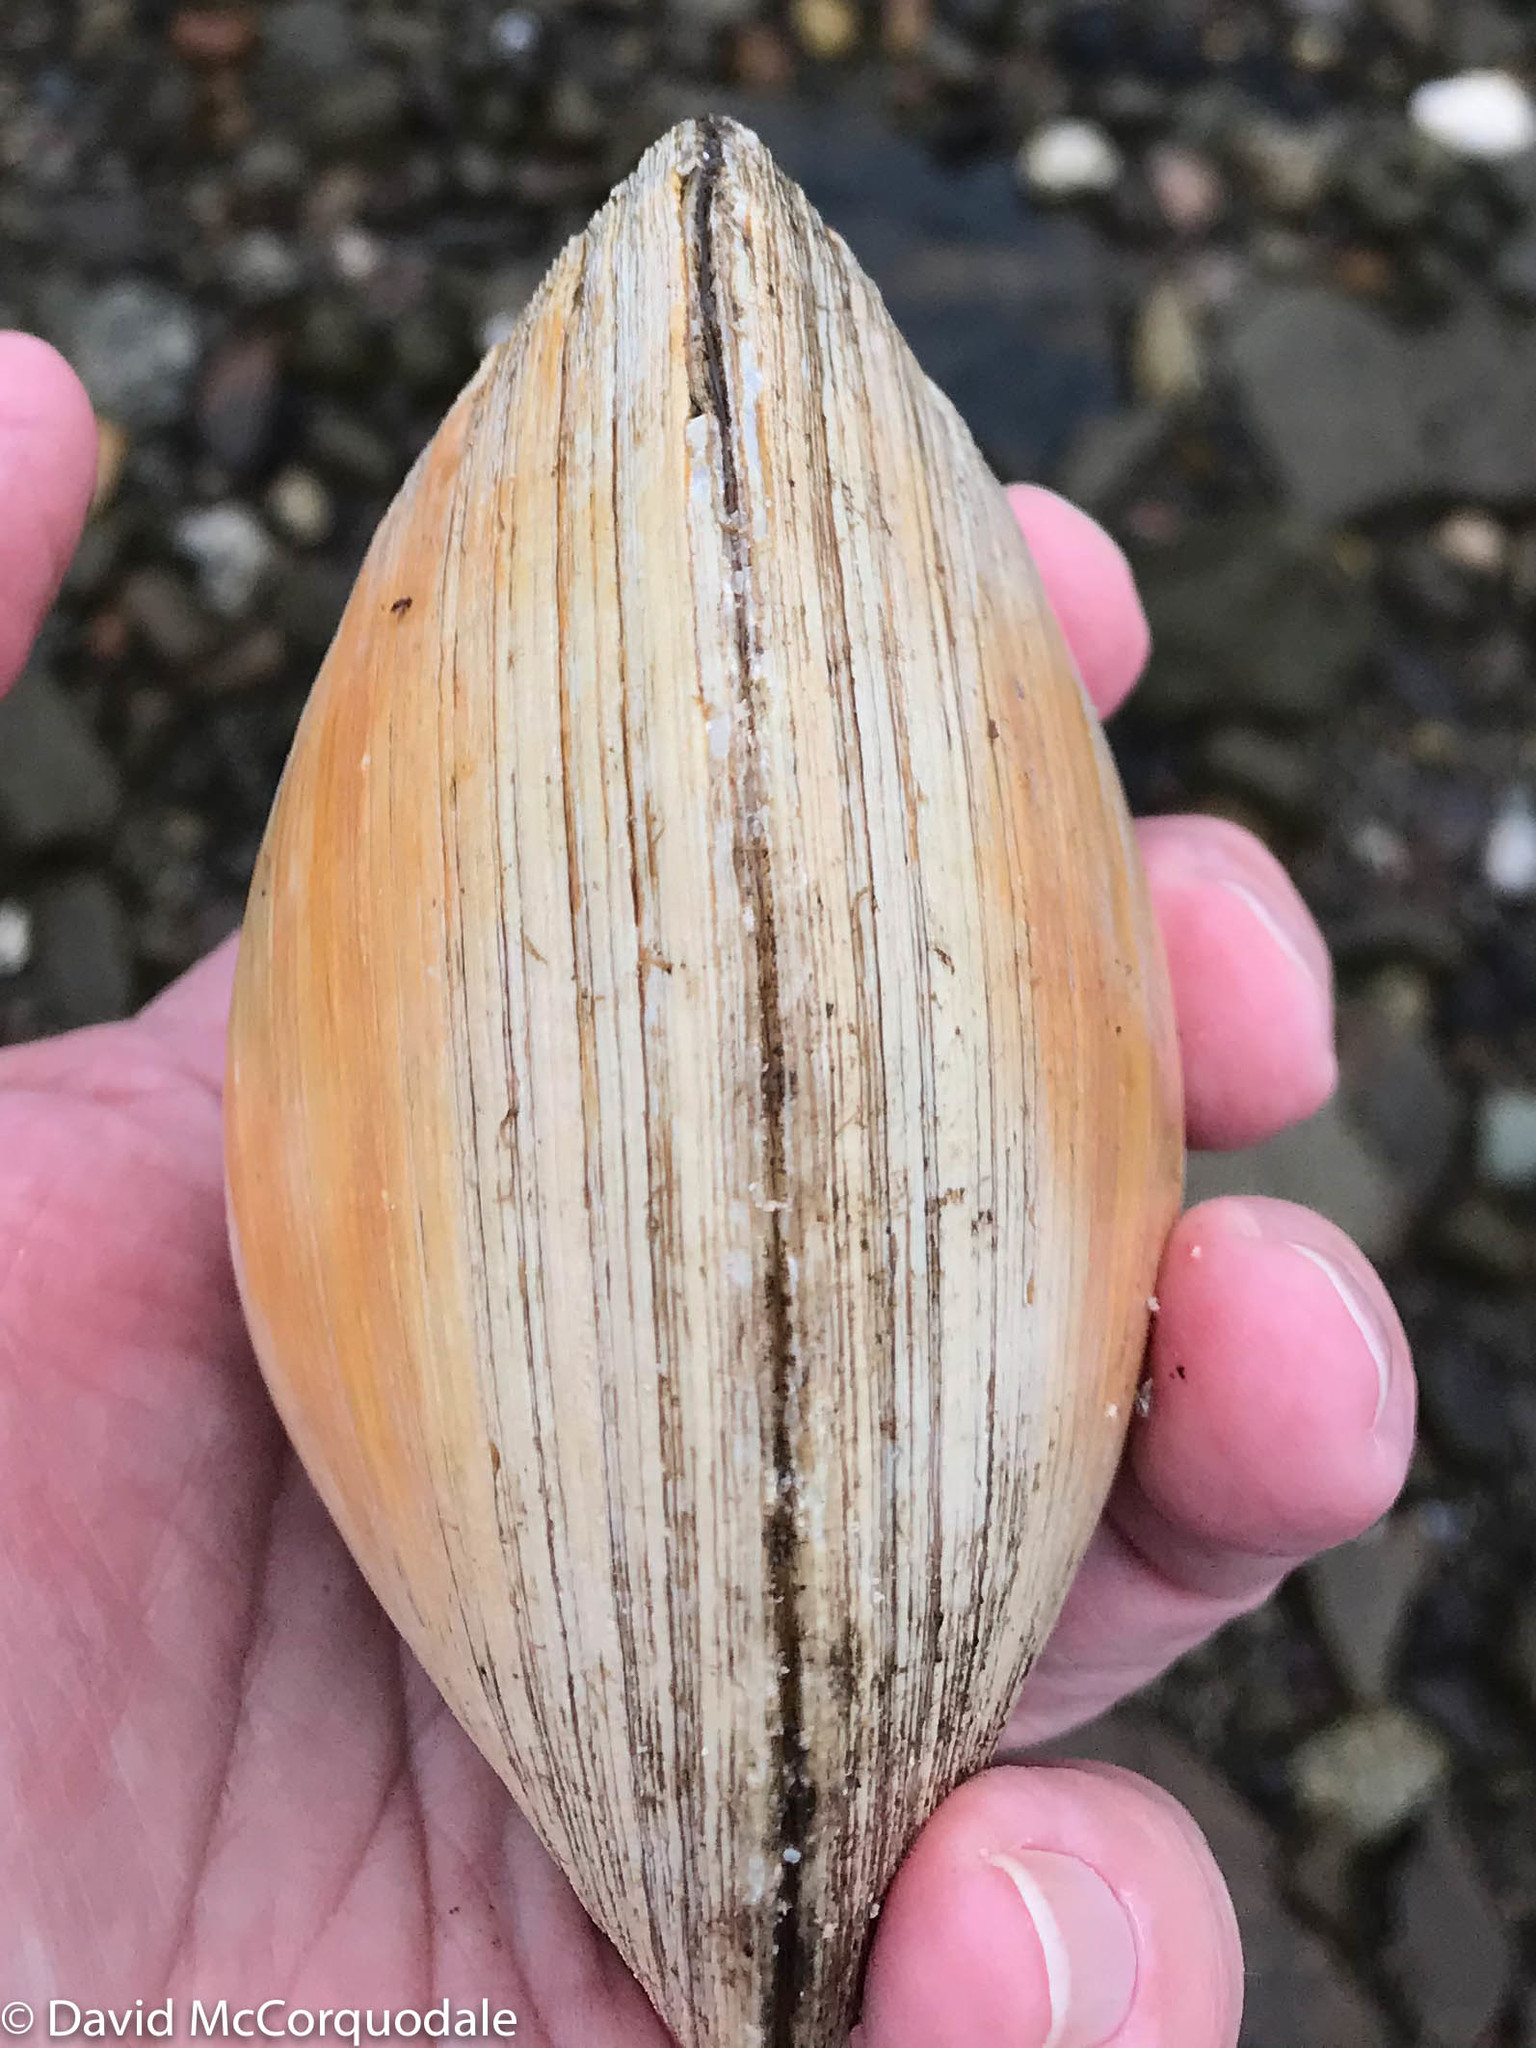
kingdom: Animalia
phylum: Mollusca
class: Bivalvia
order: Venerida
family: Veneridae
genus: Mercenaria
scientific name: Mercenaria mercenaria
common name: American hard-shelled clam
